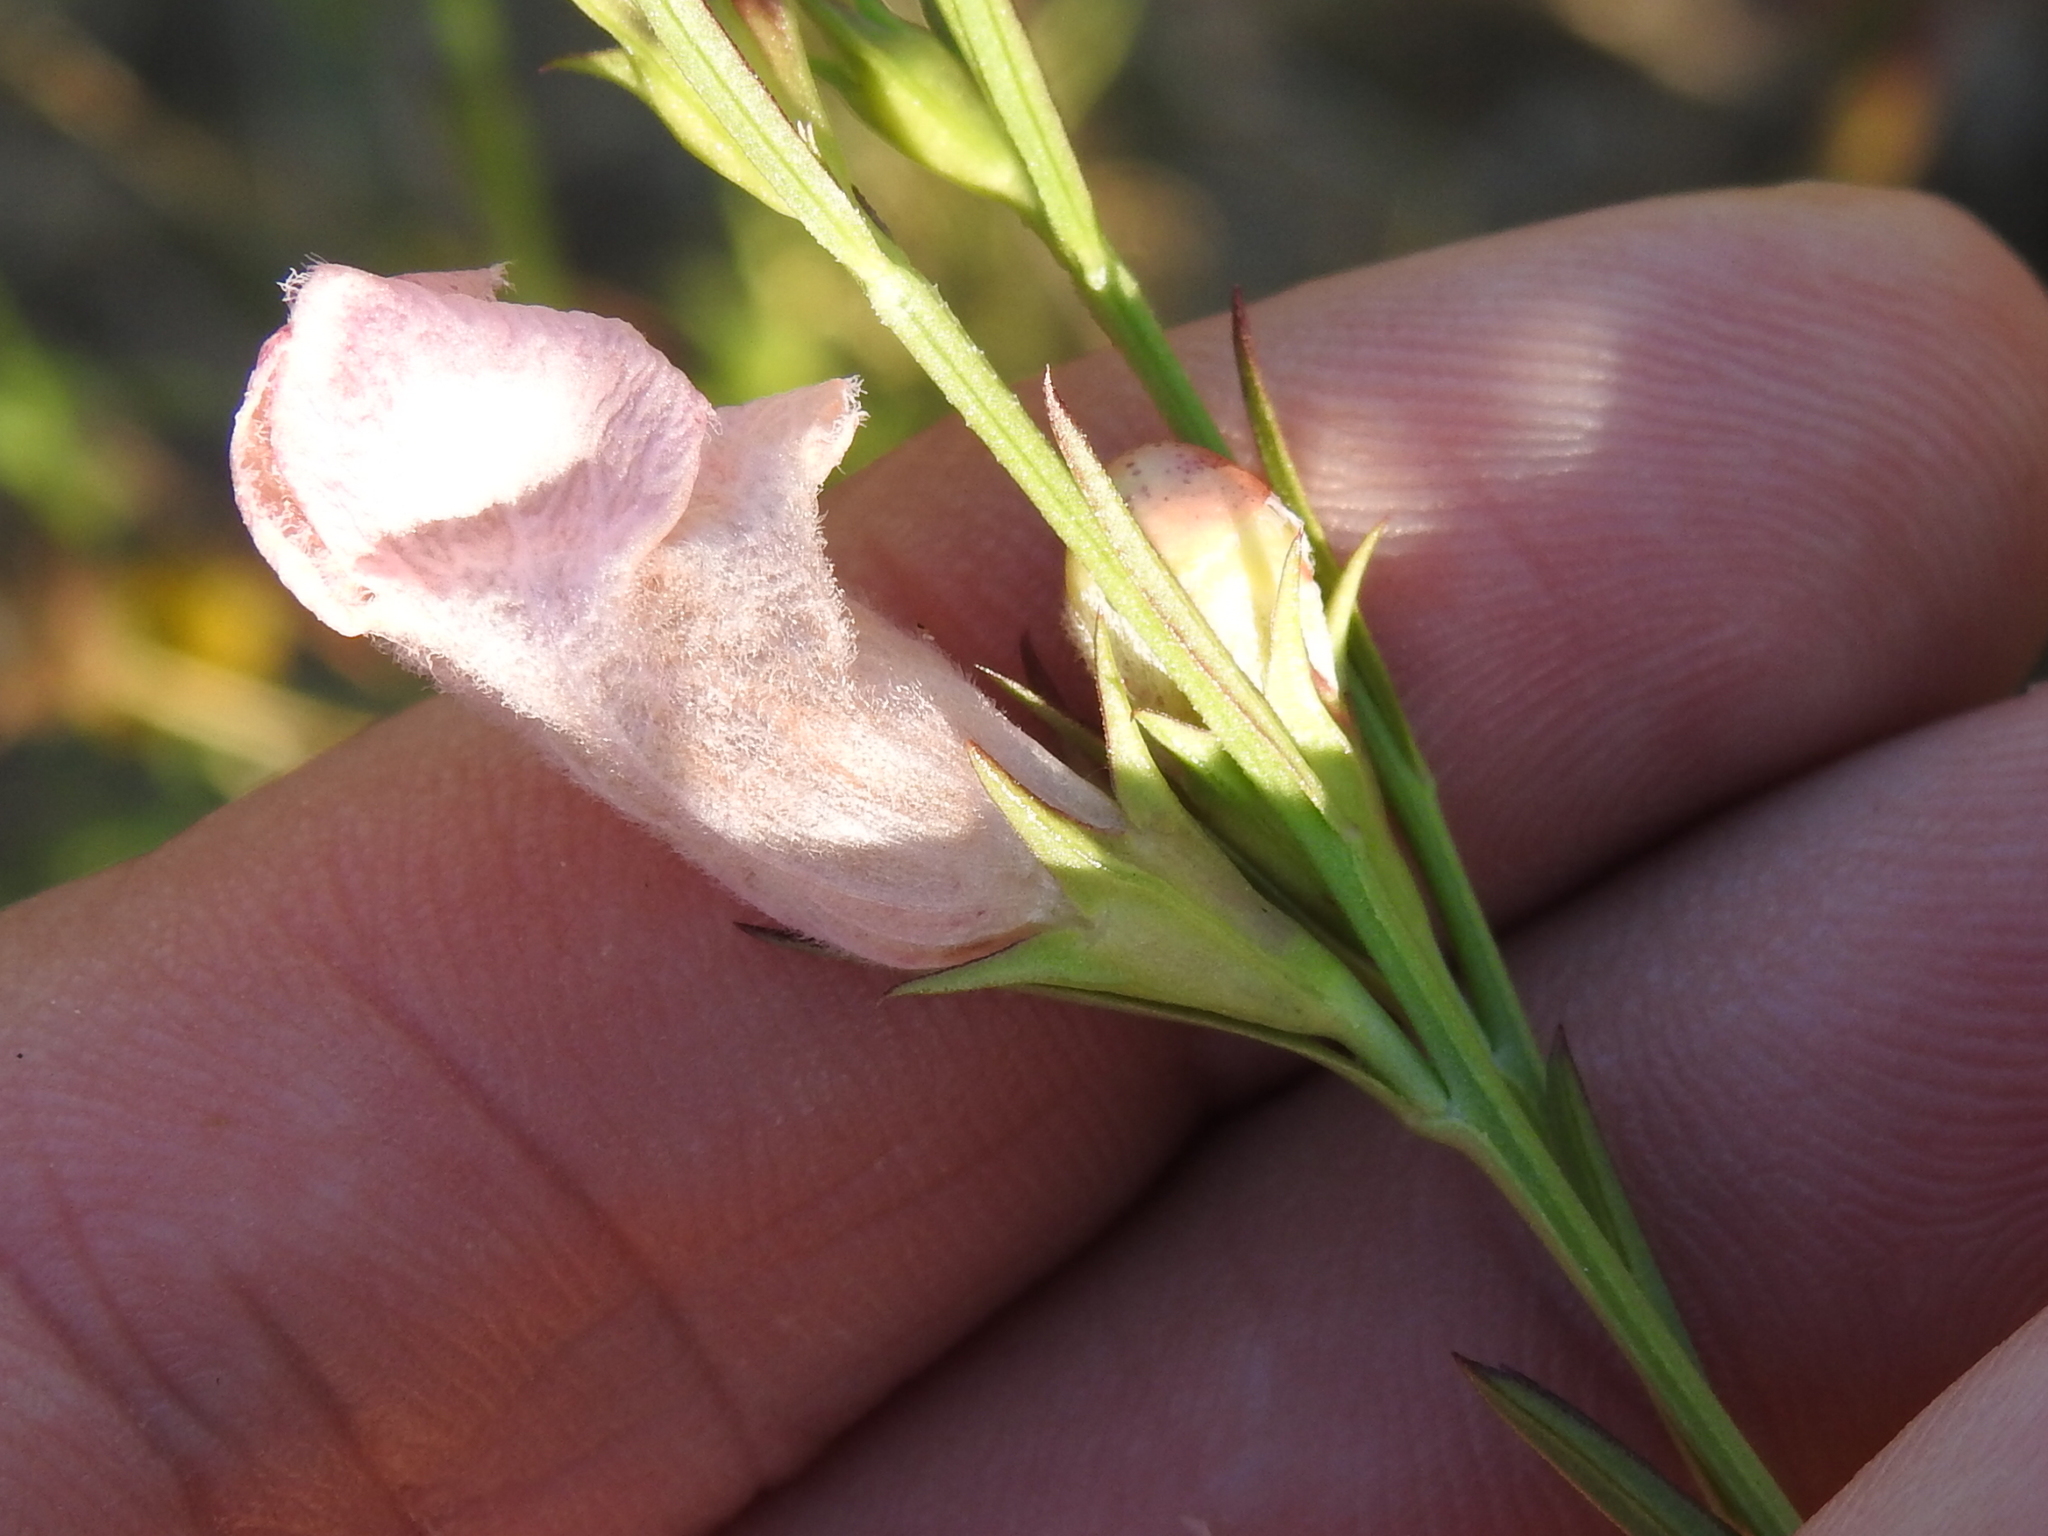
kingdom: Plantae
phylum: Tracheophyta
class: Magnoliopsida
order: Lamiales
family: Orobanchaceae
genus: Agalinis
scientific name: Agalinis heterophylla
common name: Prairie agalinis
